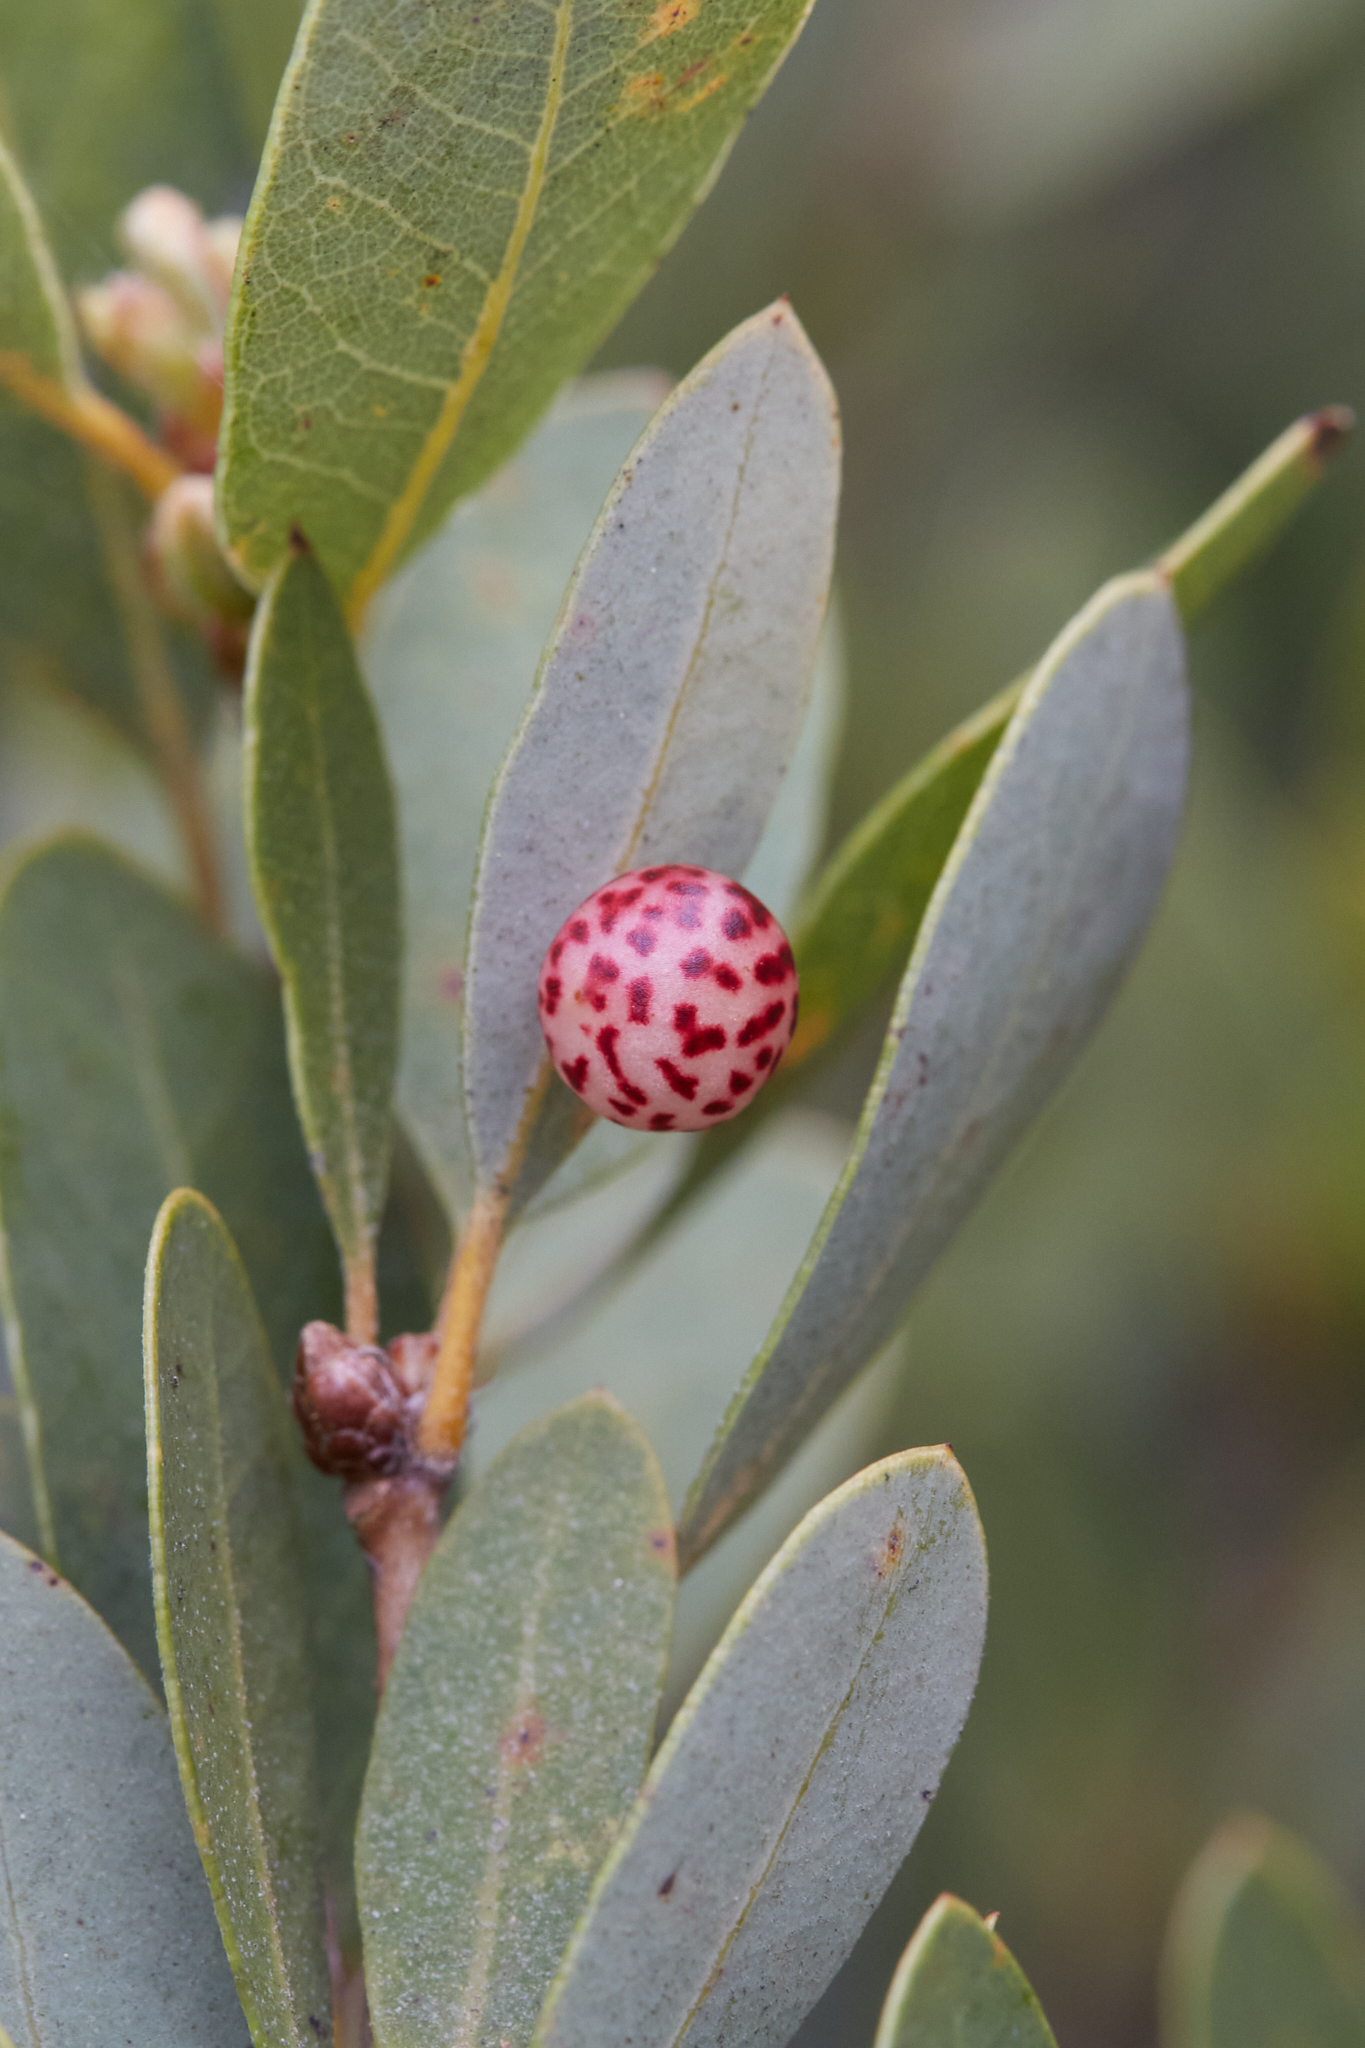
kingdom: Animalia
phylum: Arthropoda
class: Insecta
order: Hymenoptera
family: Cynipidae
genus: Andricus
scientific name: Andricus
